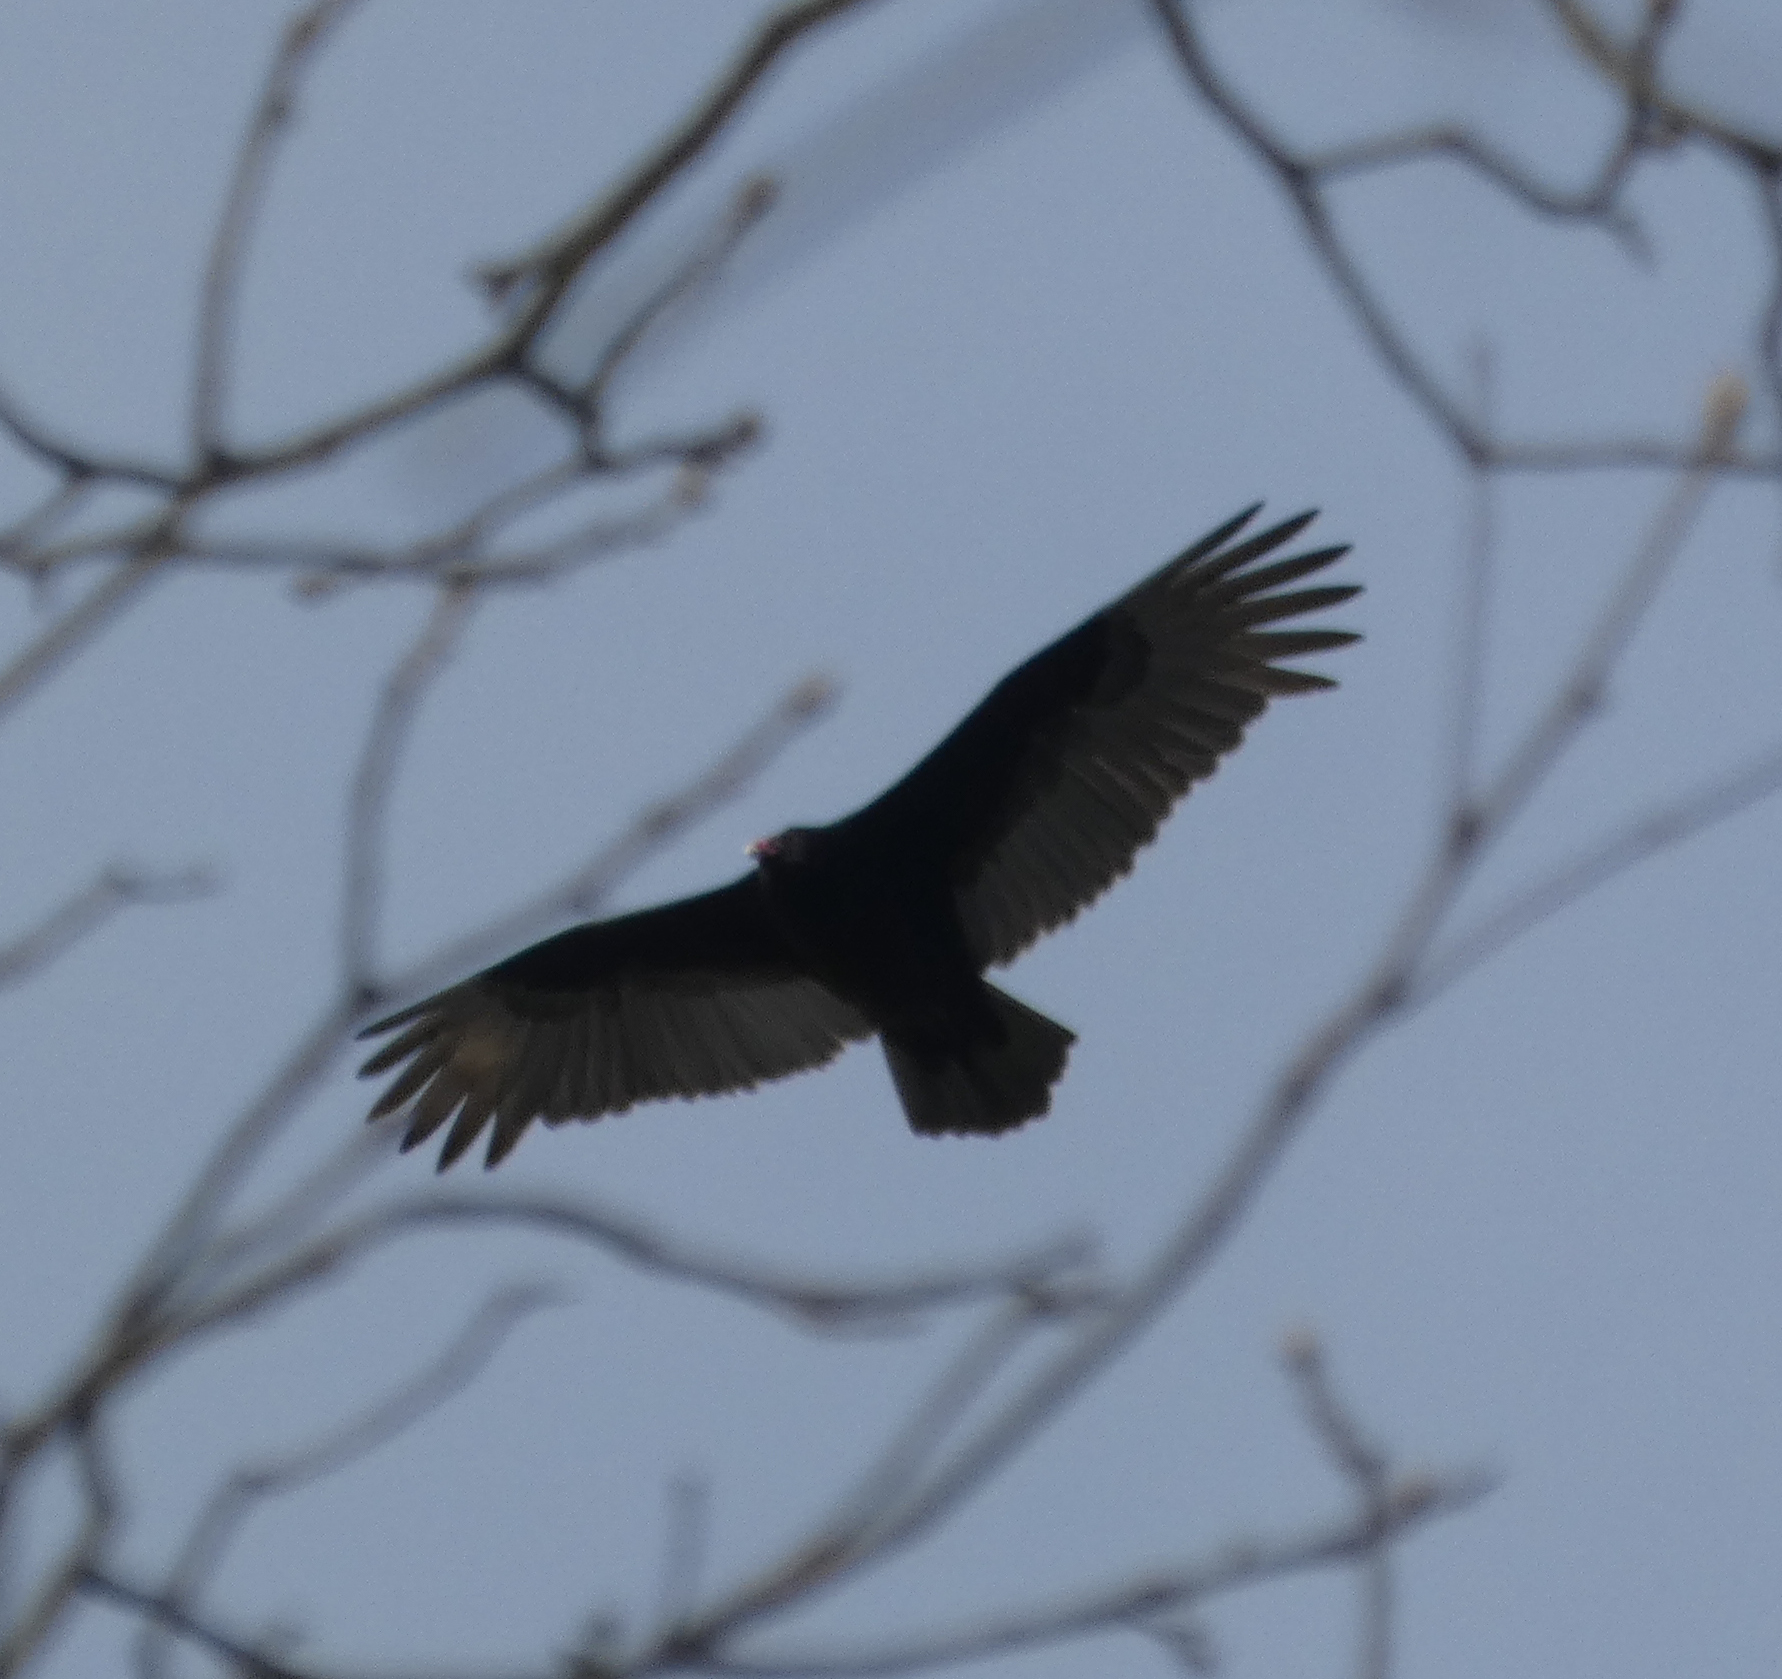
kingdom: Animalia
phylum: Chordata
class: Aves
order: Accipitriformes
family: Cathartidae
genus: Cathartes
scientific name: Cathartes aura
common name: Turkey vulture
